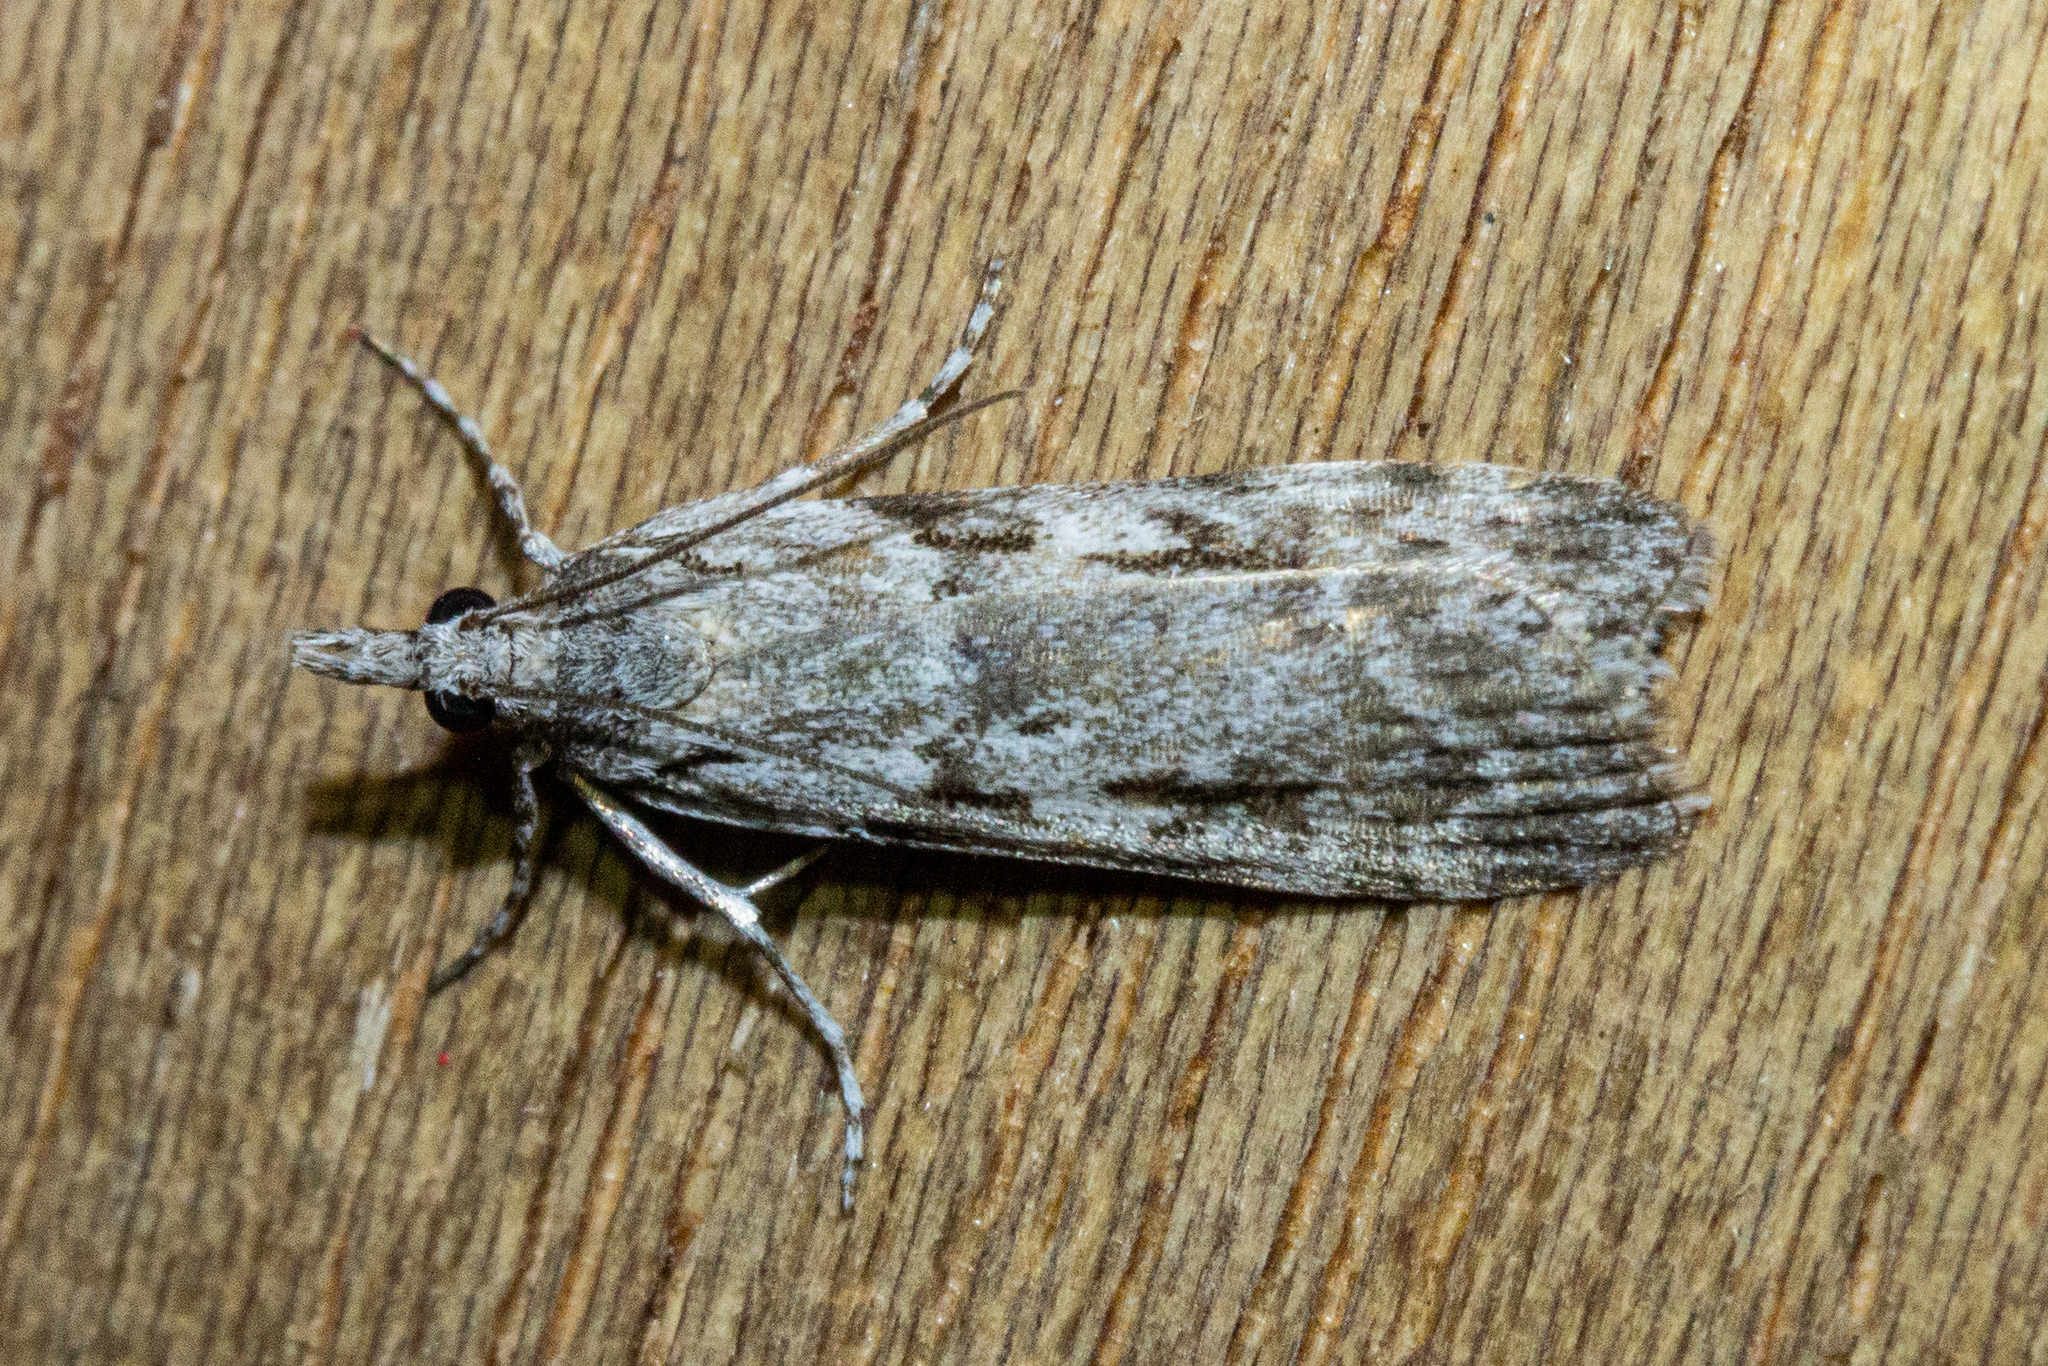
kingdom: Animalia
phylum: Arthropoda
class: Insecta
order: Lepidoptera
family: Crambidae
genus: Scoparia
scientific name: Scoparia halopis
